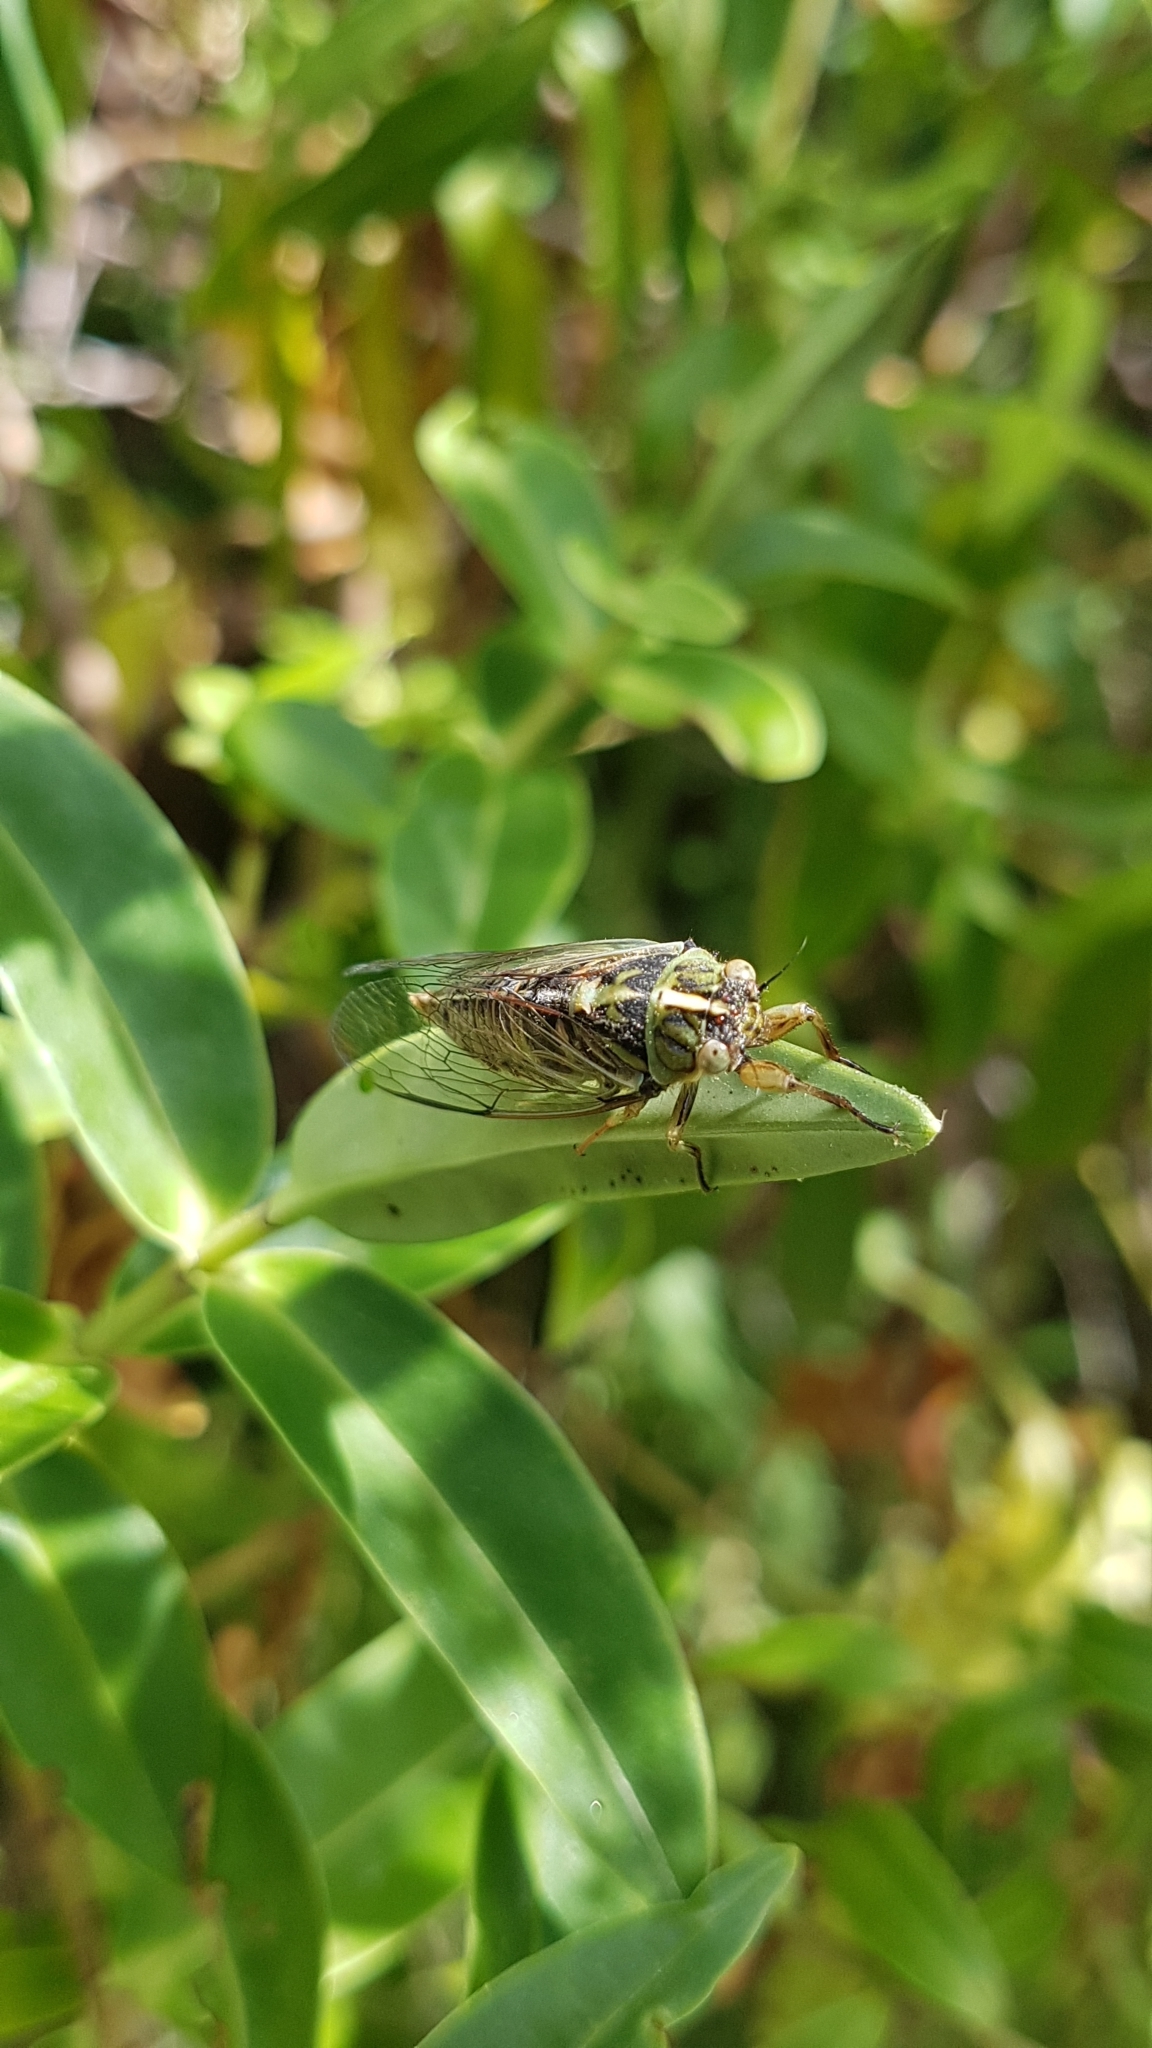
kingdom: Animalia
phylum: Arthropoda
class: Insecta
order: Hemiptera
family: Cicadidae
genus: Kikihia
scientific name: Kikihia muta
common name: Variable cicada
